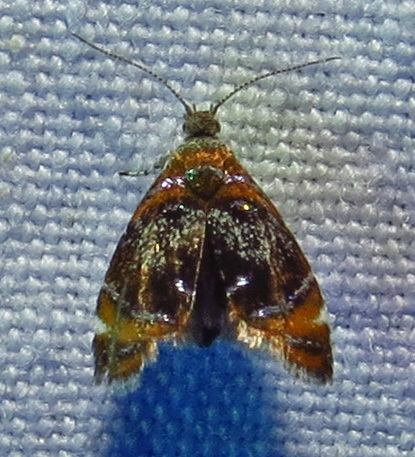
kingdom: Animalia
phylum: Arthropoda
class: Insecta
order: Lepidoptera
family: Choreutidae
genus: Prochoreutis
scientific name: Prochoreutis inflatella
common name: Skullcap skeletonizer moth
